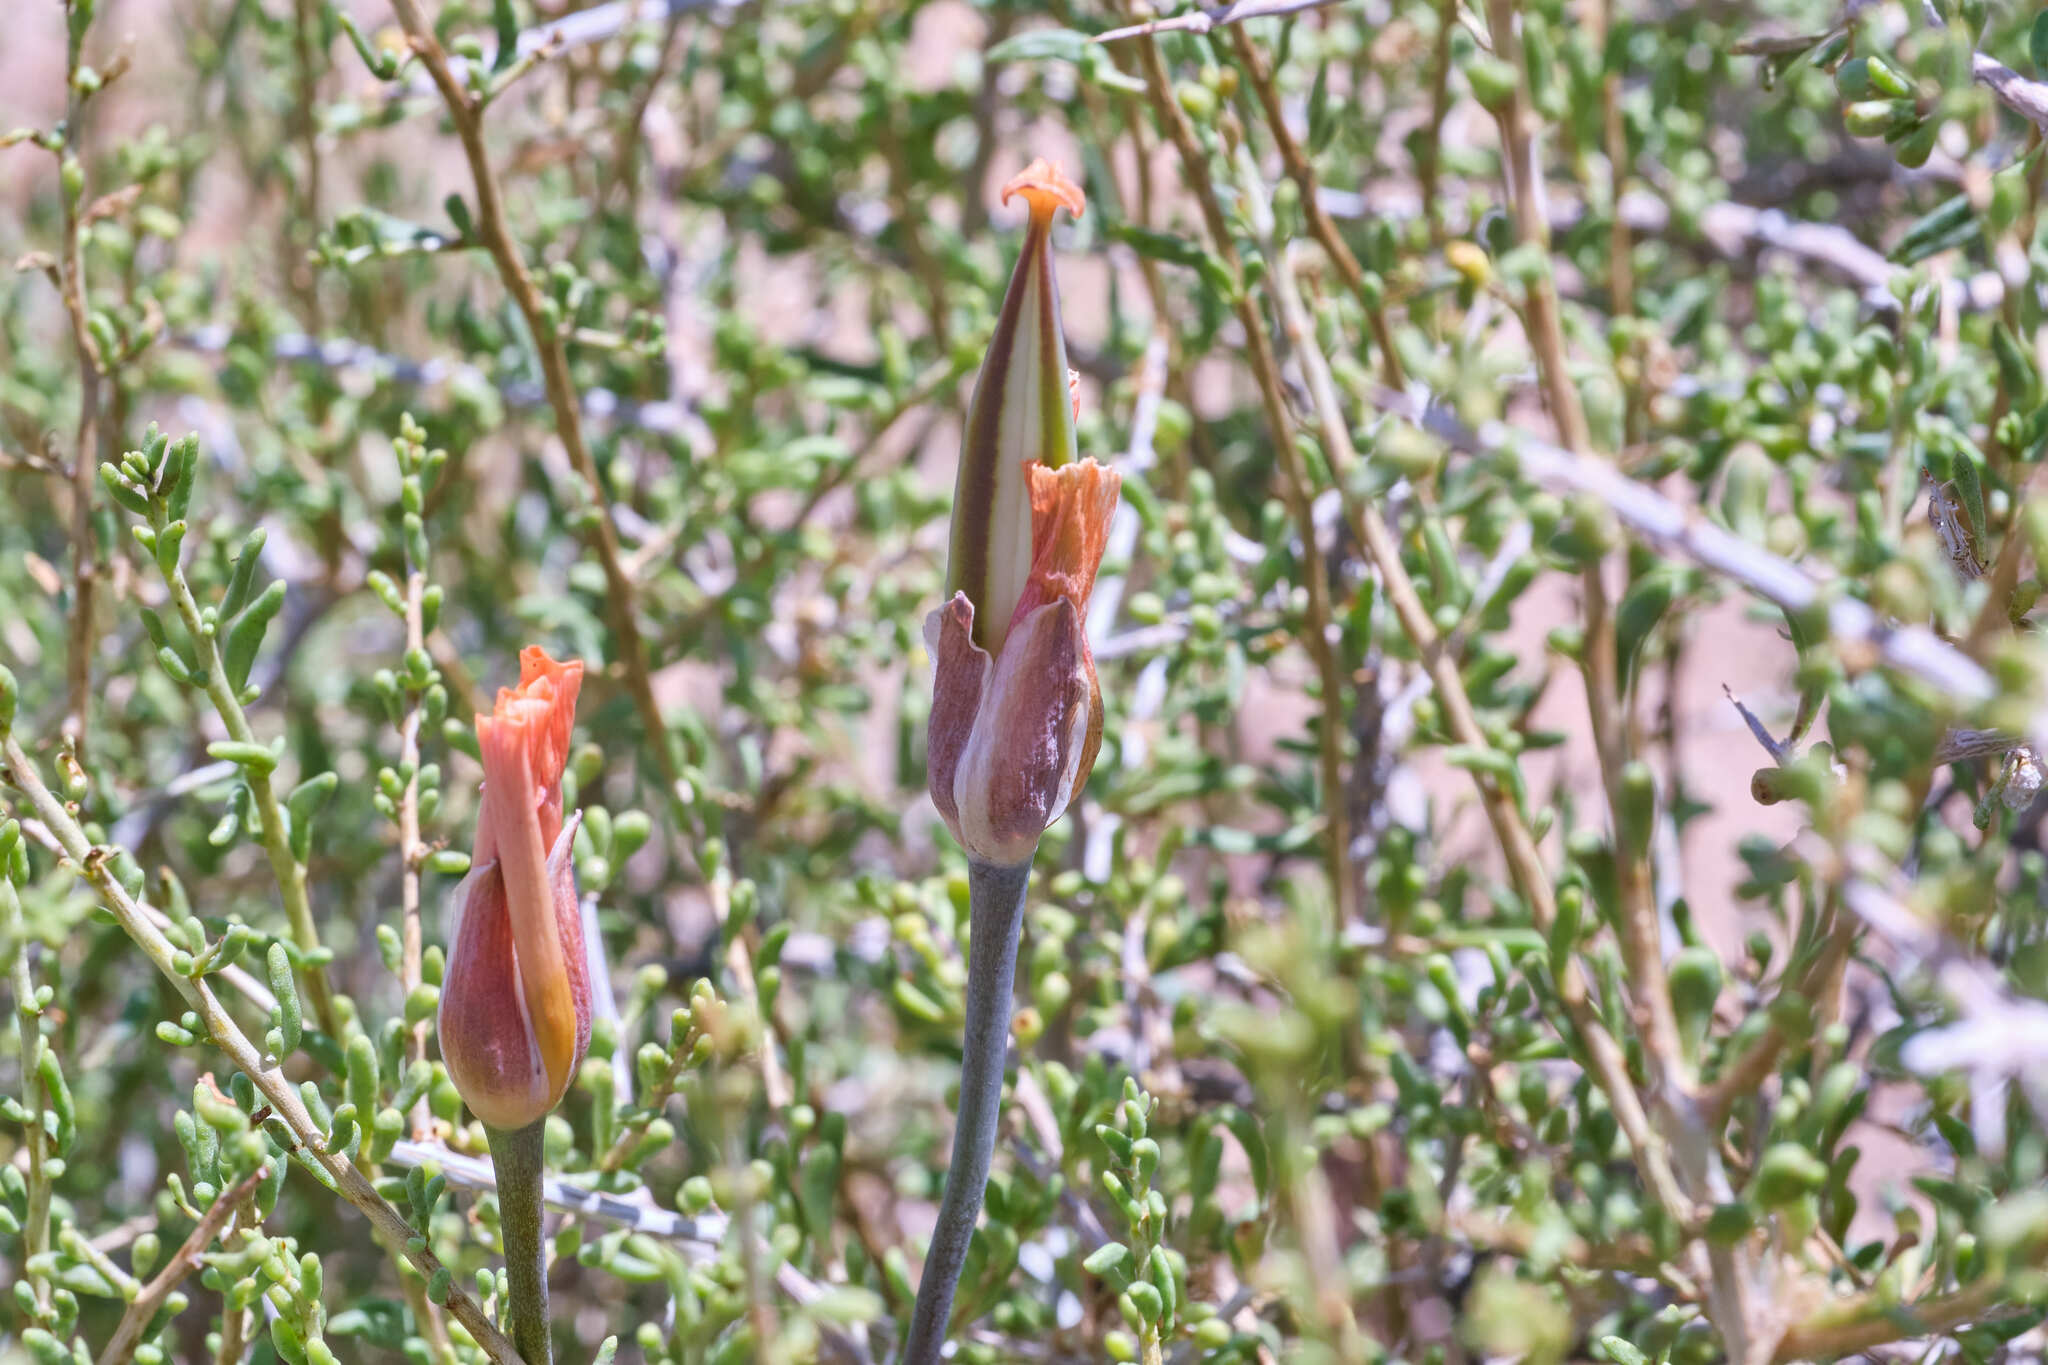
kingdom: Plantae
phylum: Tracheophyta
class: Liliopsida
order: Liliales
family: Liliaceae
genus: Calochortus
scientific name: Calochortus kennedyi
